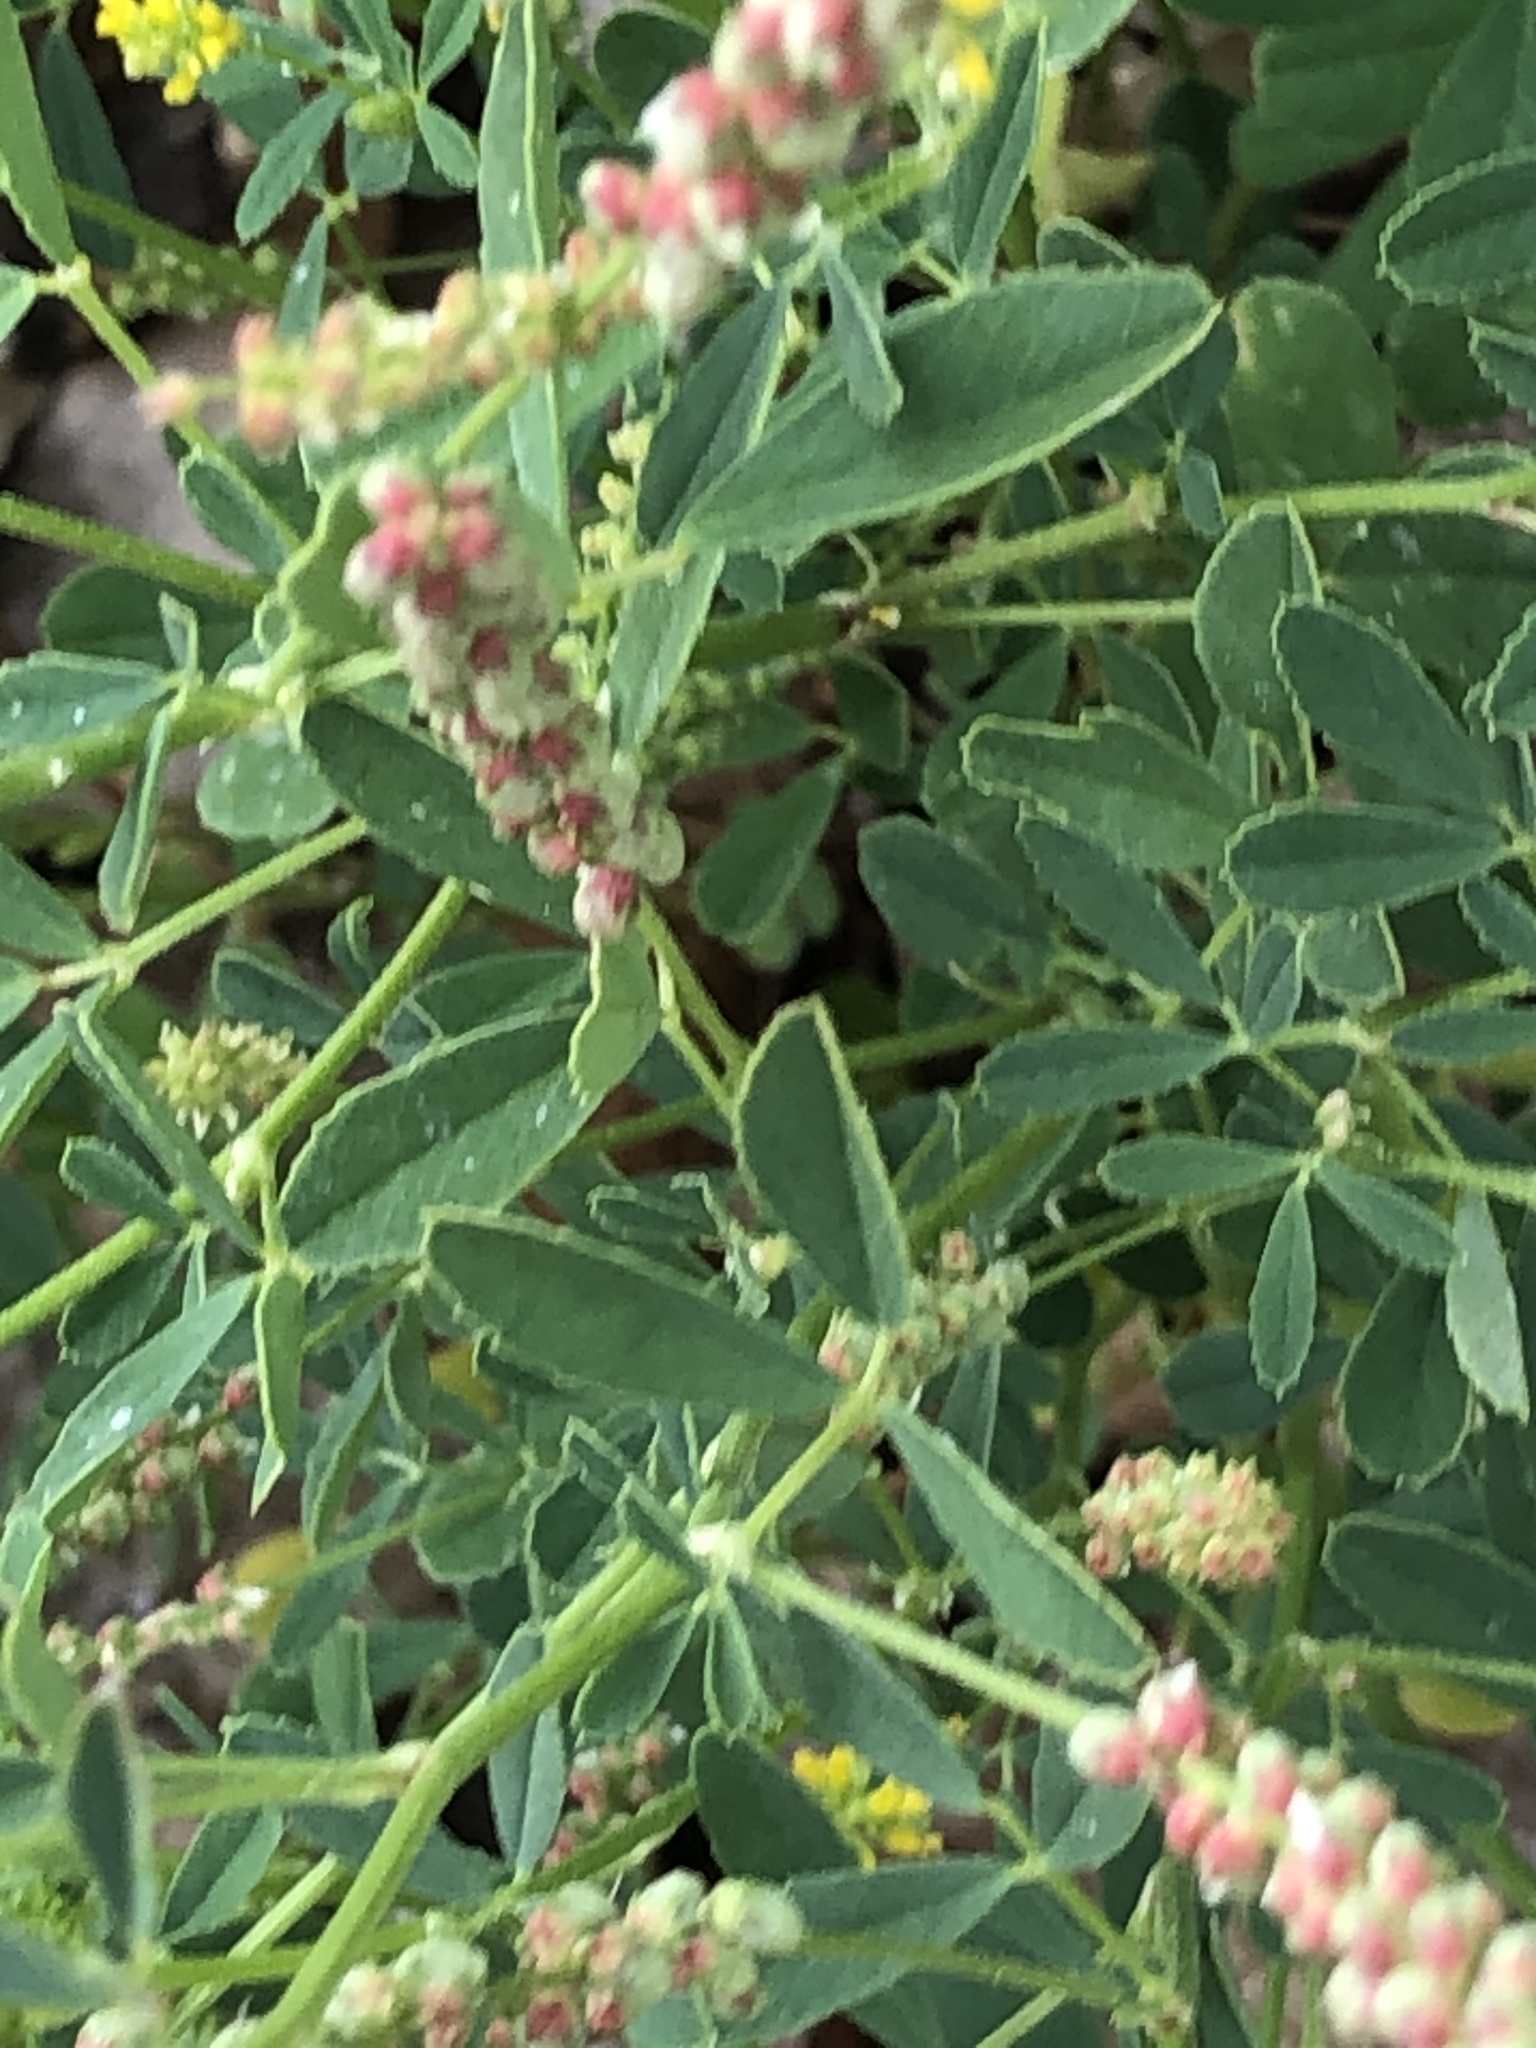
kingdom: Plantae
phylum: Tracheophyta
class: Magnoliopsida
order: Fabales
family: Fabaceae
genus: Melilotus
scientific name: Melilotus indicus
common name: Small melilot
